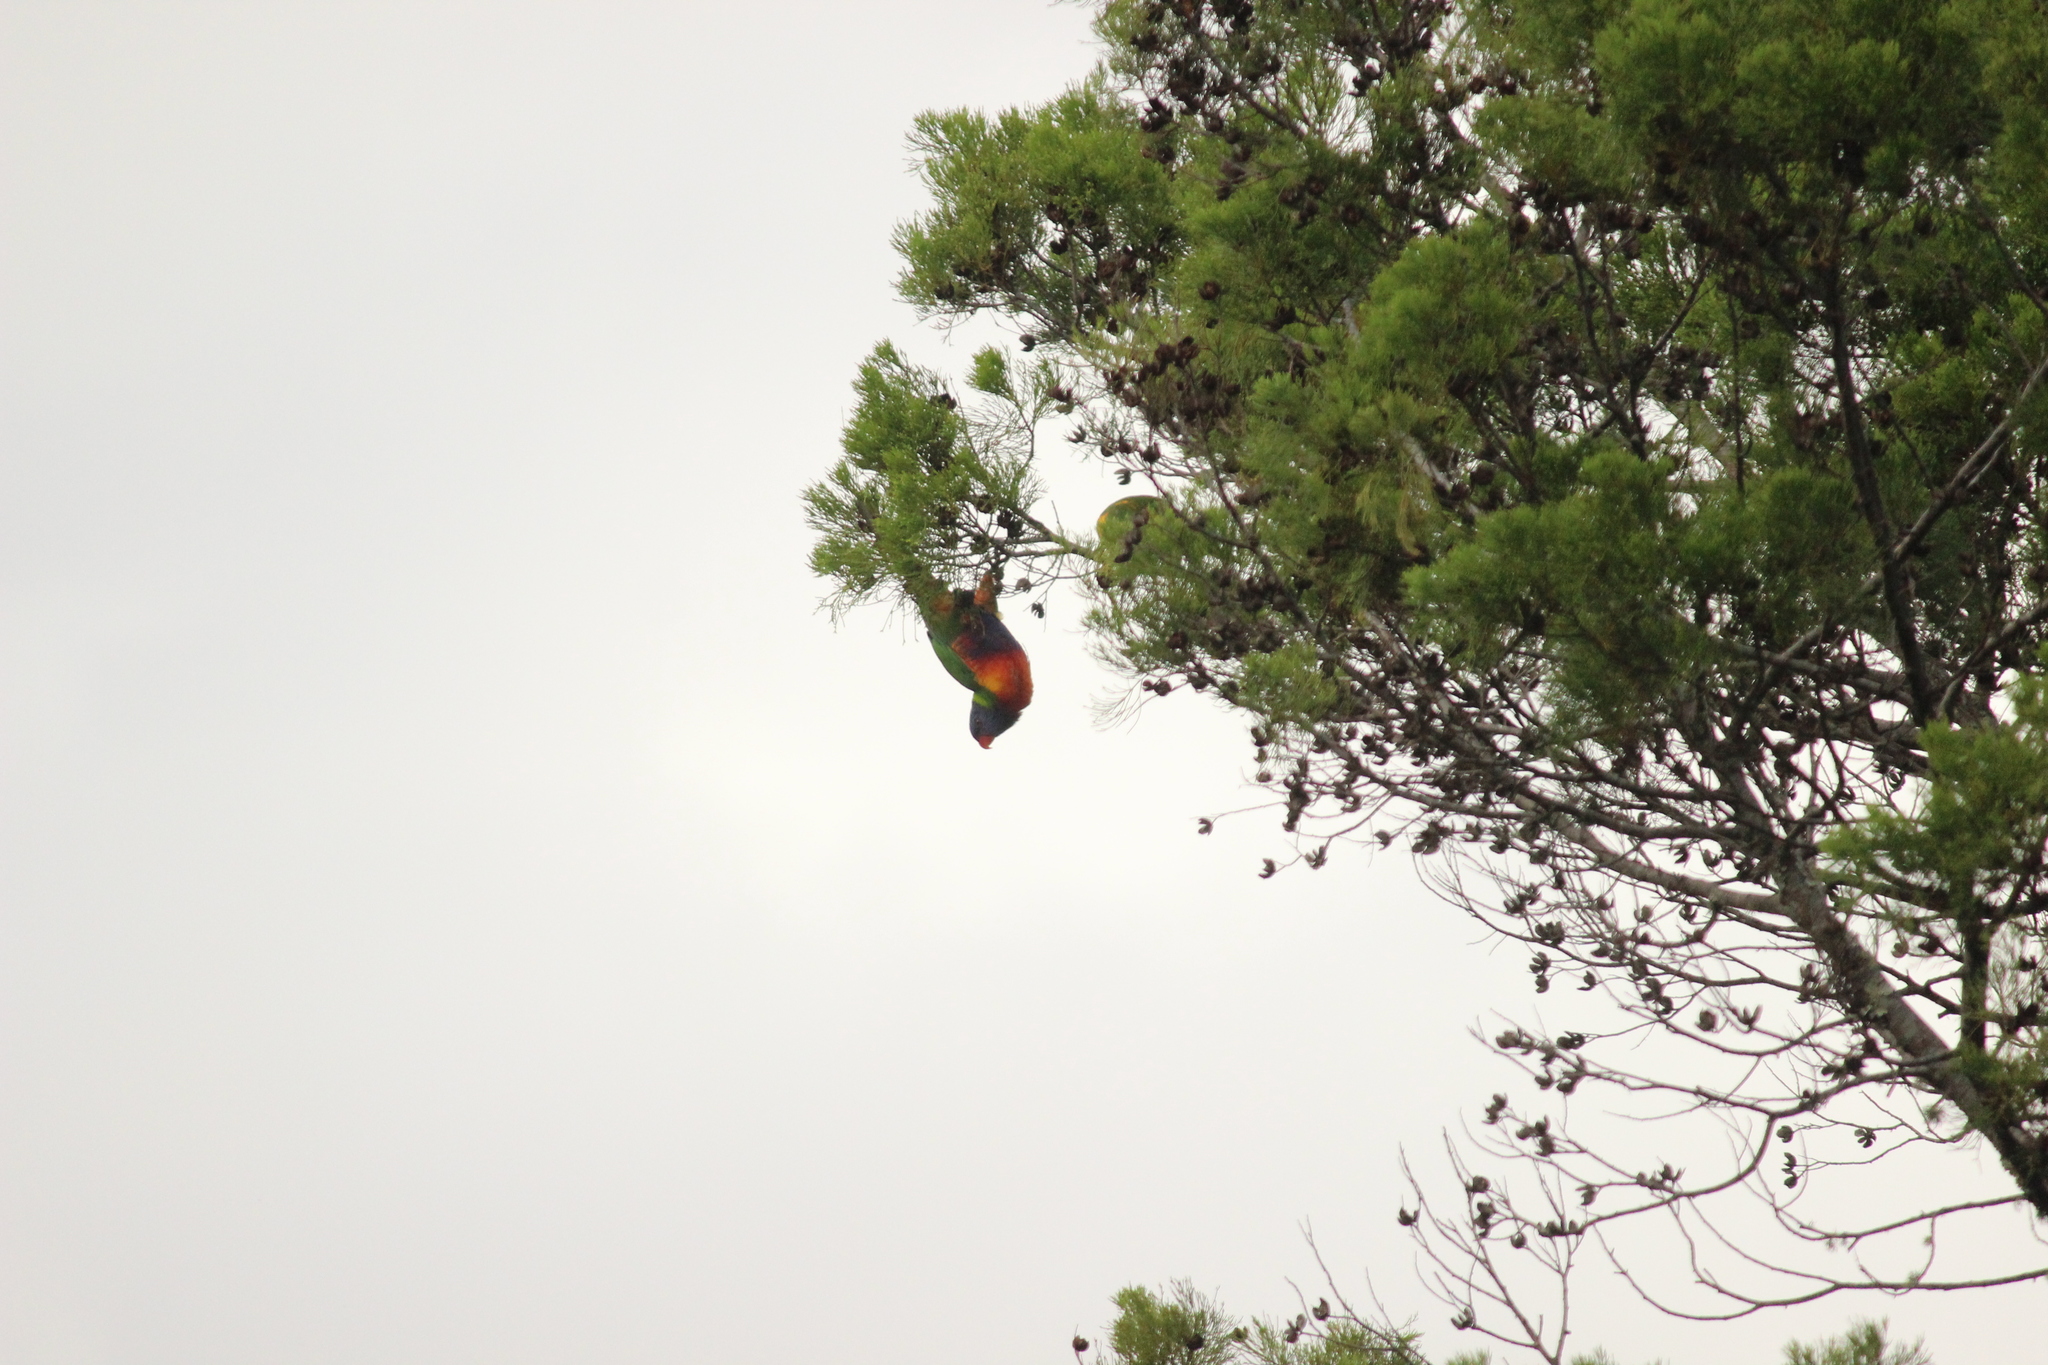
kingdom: Animalia
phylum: Chordata
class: Aves
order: Psittaciformes
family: Psittacidae
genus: Trichoglossus
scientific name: Trichoglossus haematodus
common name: Coconut lorikeet
